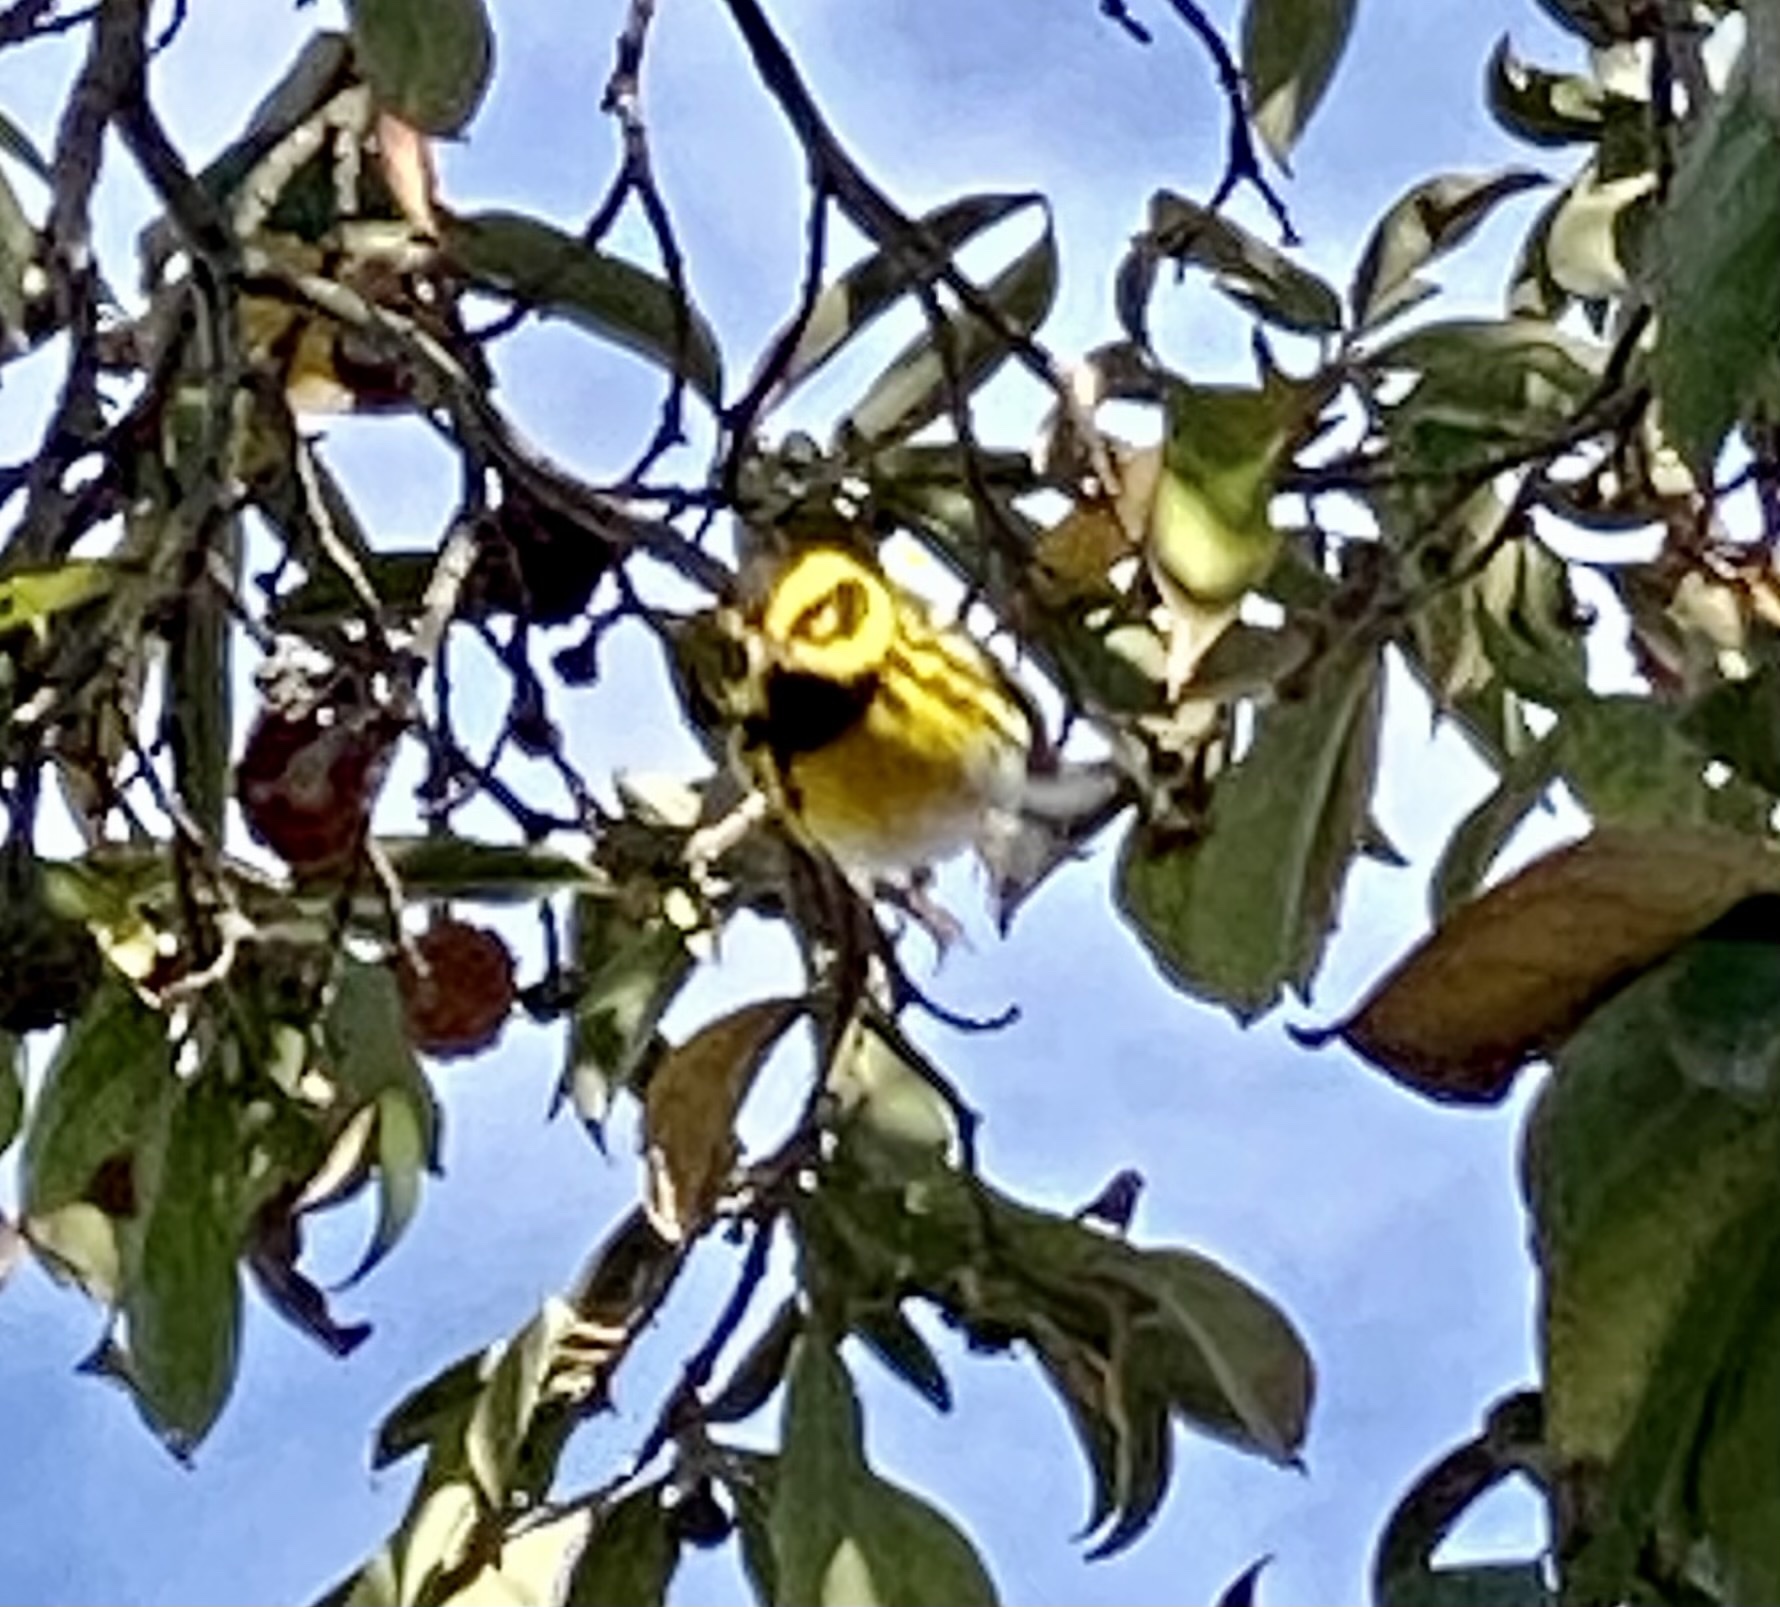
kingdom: Animalia
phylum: Chordata
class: Aves
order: Passeriformes
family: Parulidae
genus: Setophaga
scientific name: Setophaga townsendi
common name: Townsend's warbler
